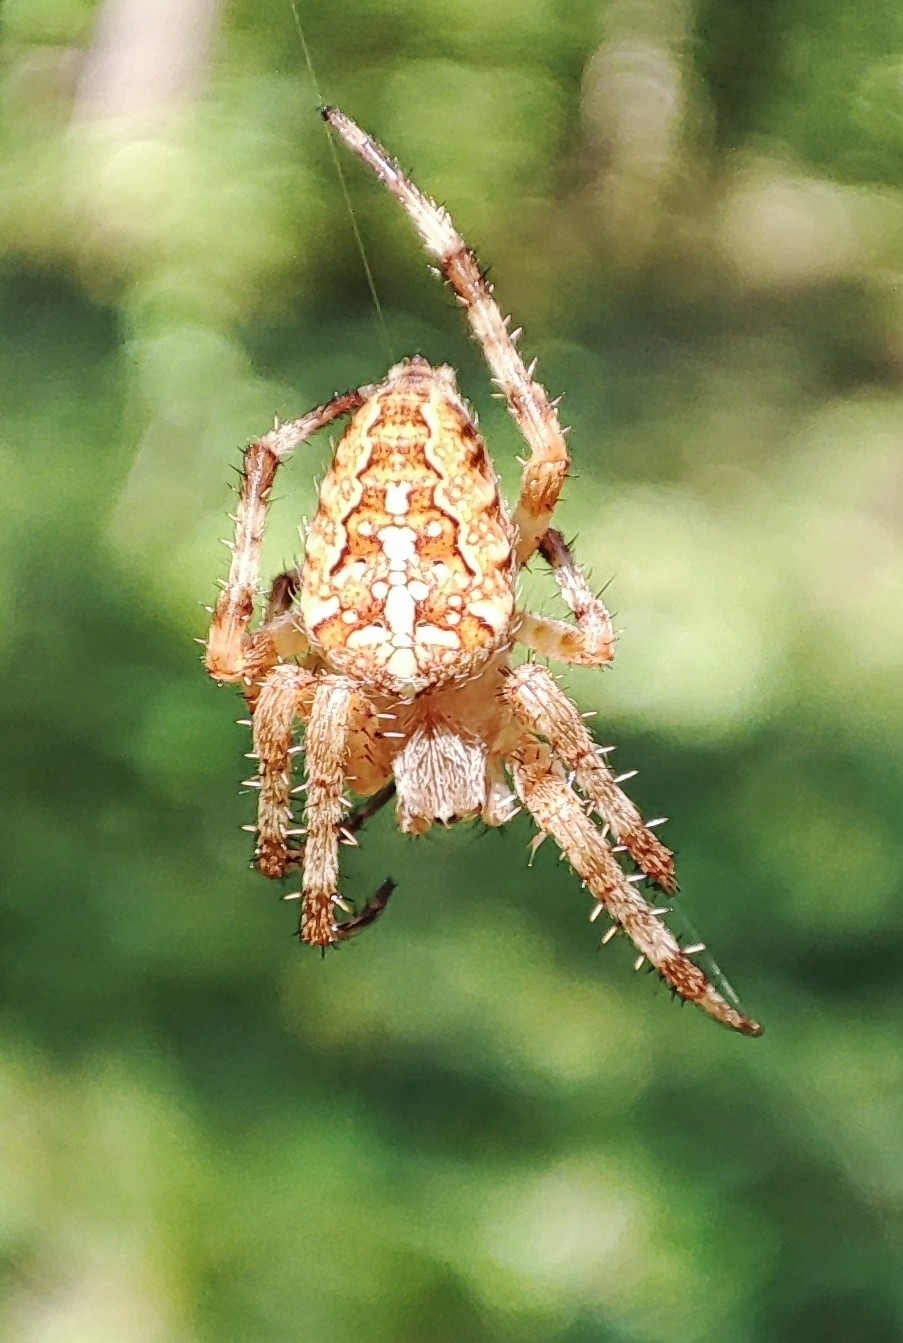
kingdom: Animalia
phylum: Arthropoda
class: Arachnida
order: Araneae
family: Araneidae
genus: Araneus
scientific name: Araneus diadematus
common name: Cross orbweaver
